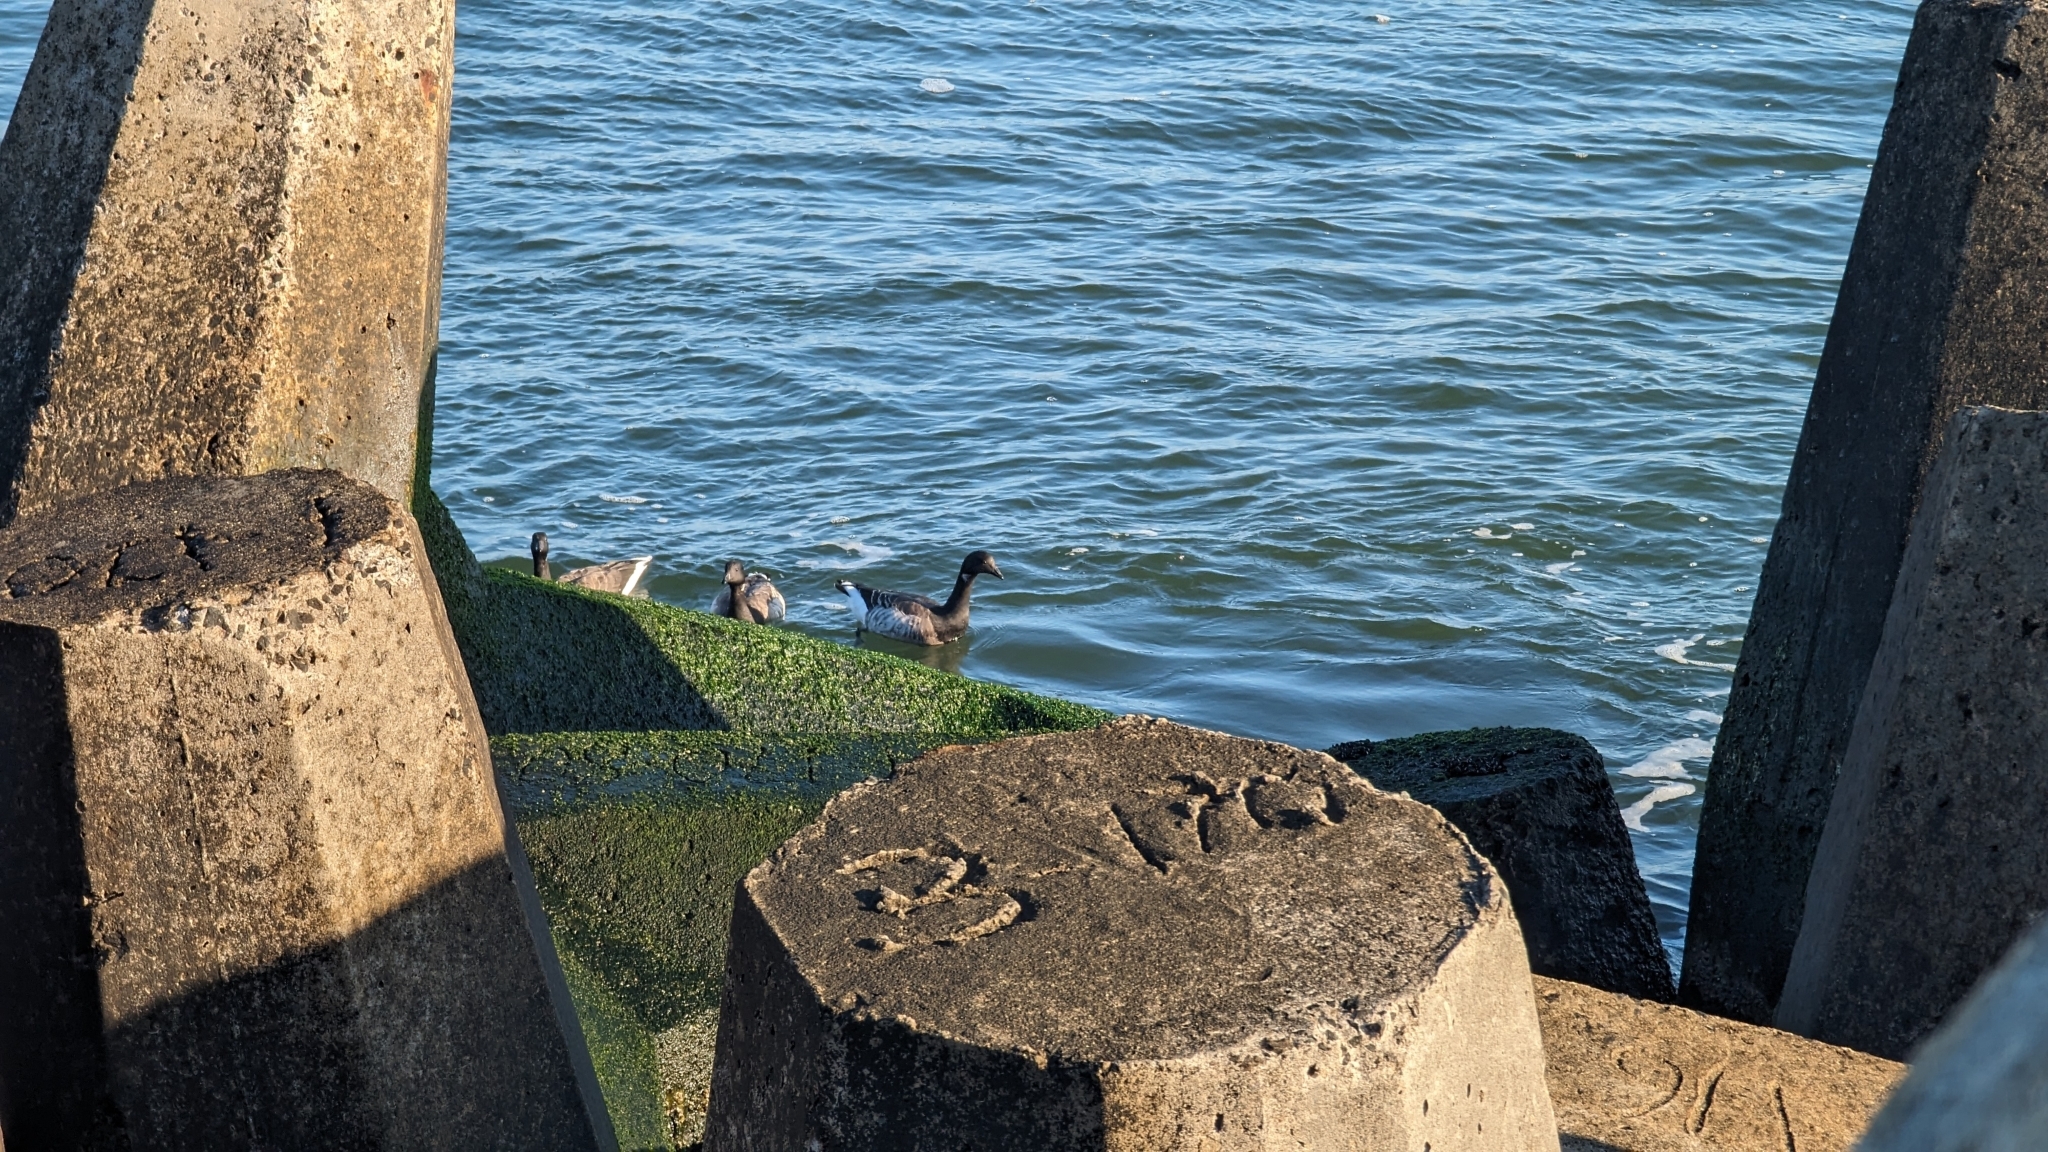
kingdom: Animalia
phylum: Chordata
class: Aves
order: Anseriformes
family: Anatidae
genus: Branta
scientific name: Branta bernicla
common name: Brant goose
